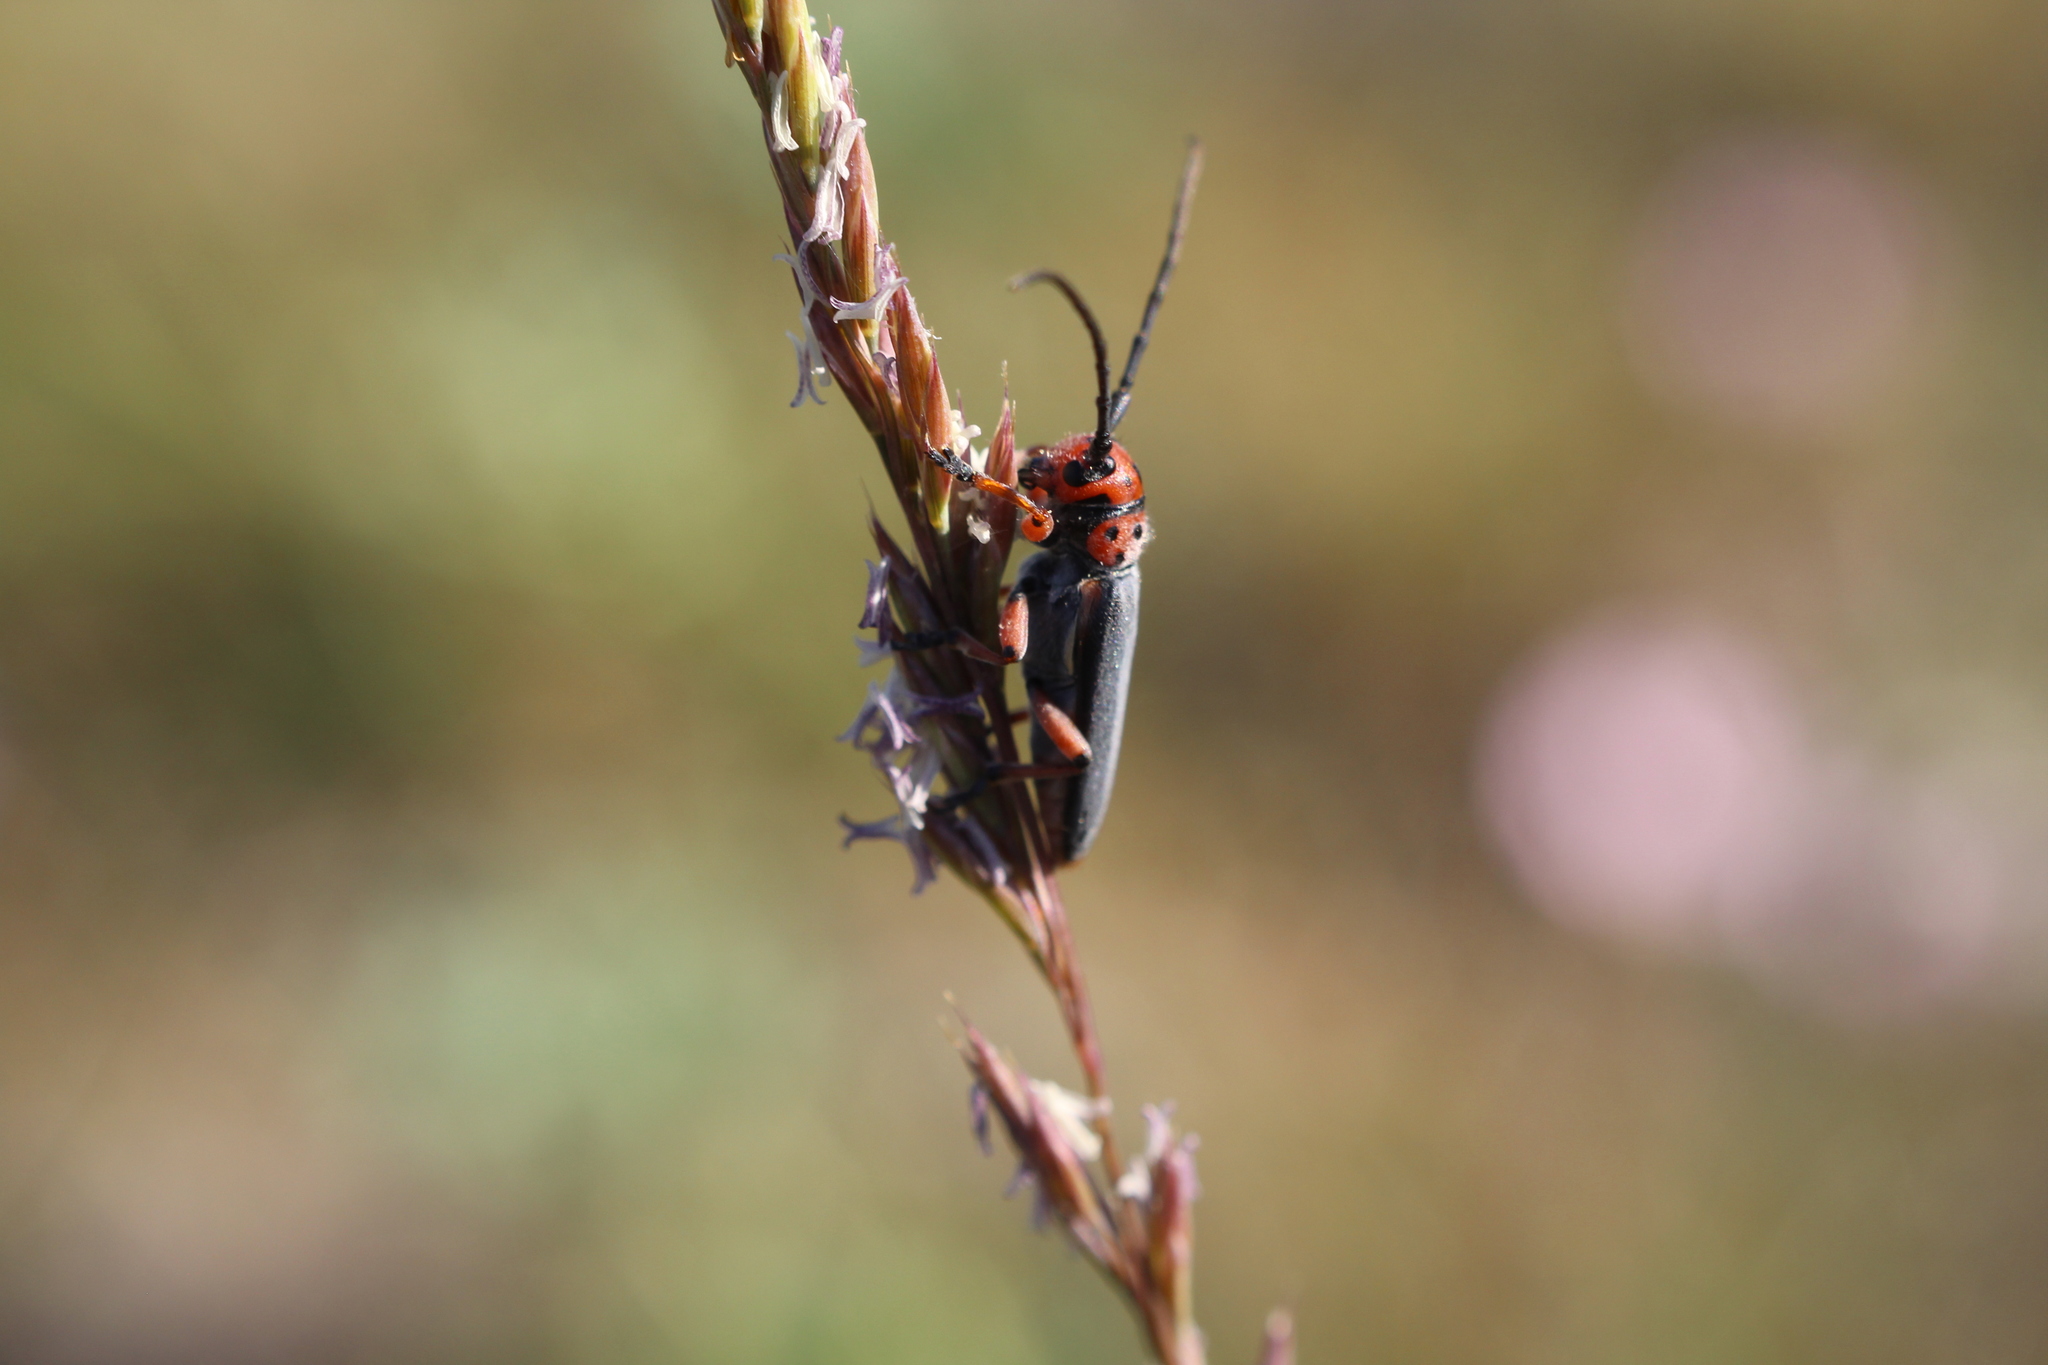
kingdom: Animalia
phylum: Arthropoda
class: Insecta
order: Coleoptera
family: Cerambycidae
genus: Phytoecia
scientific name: Phytoecia rubropunctata
